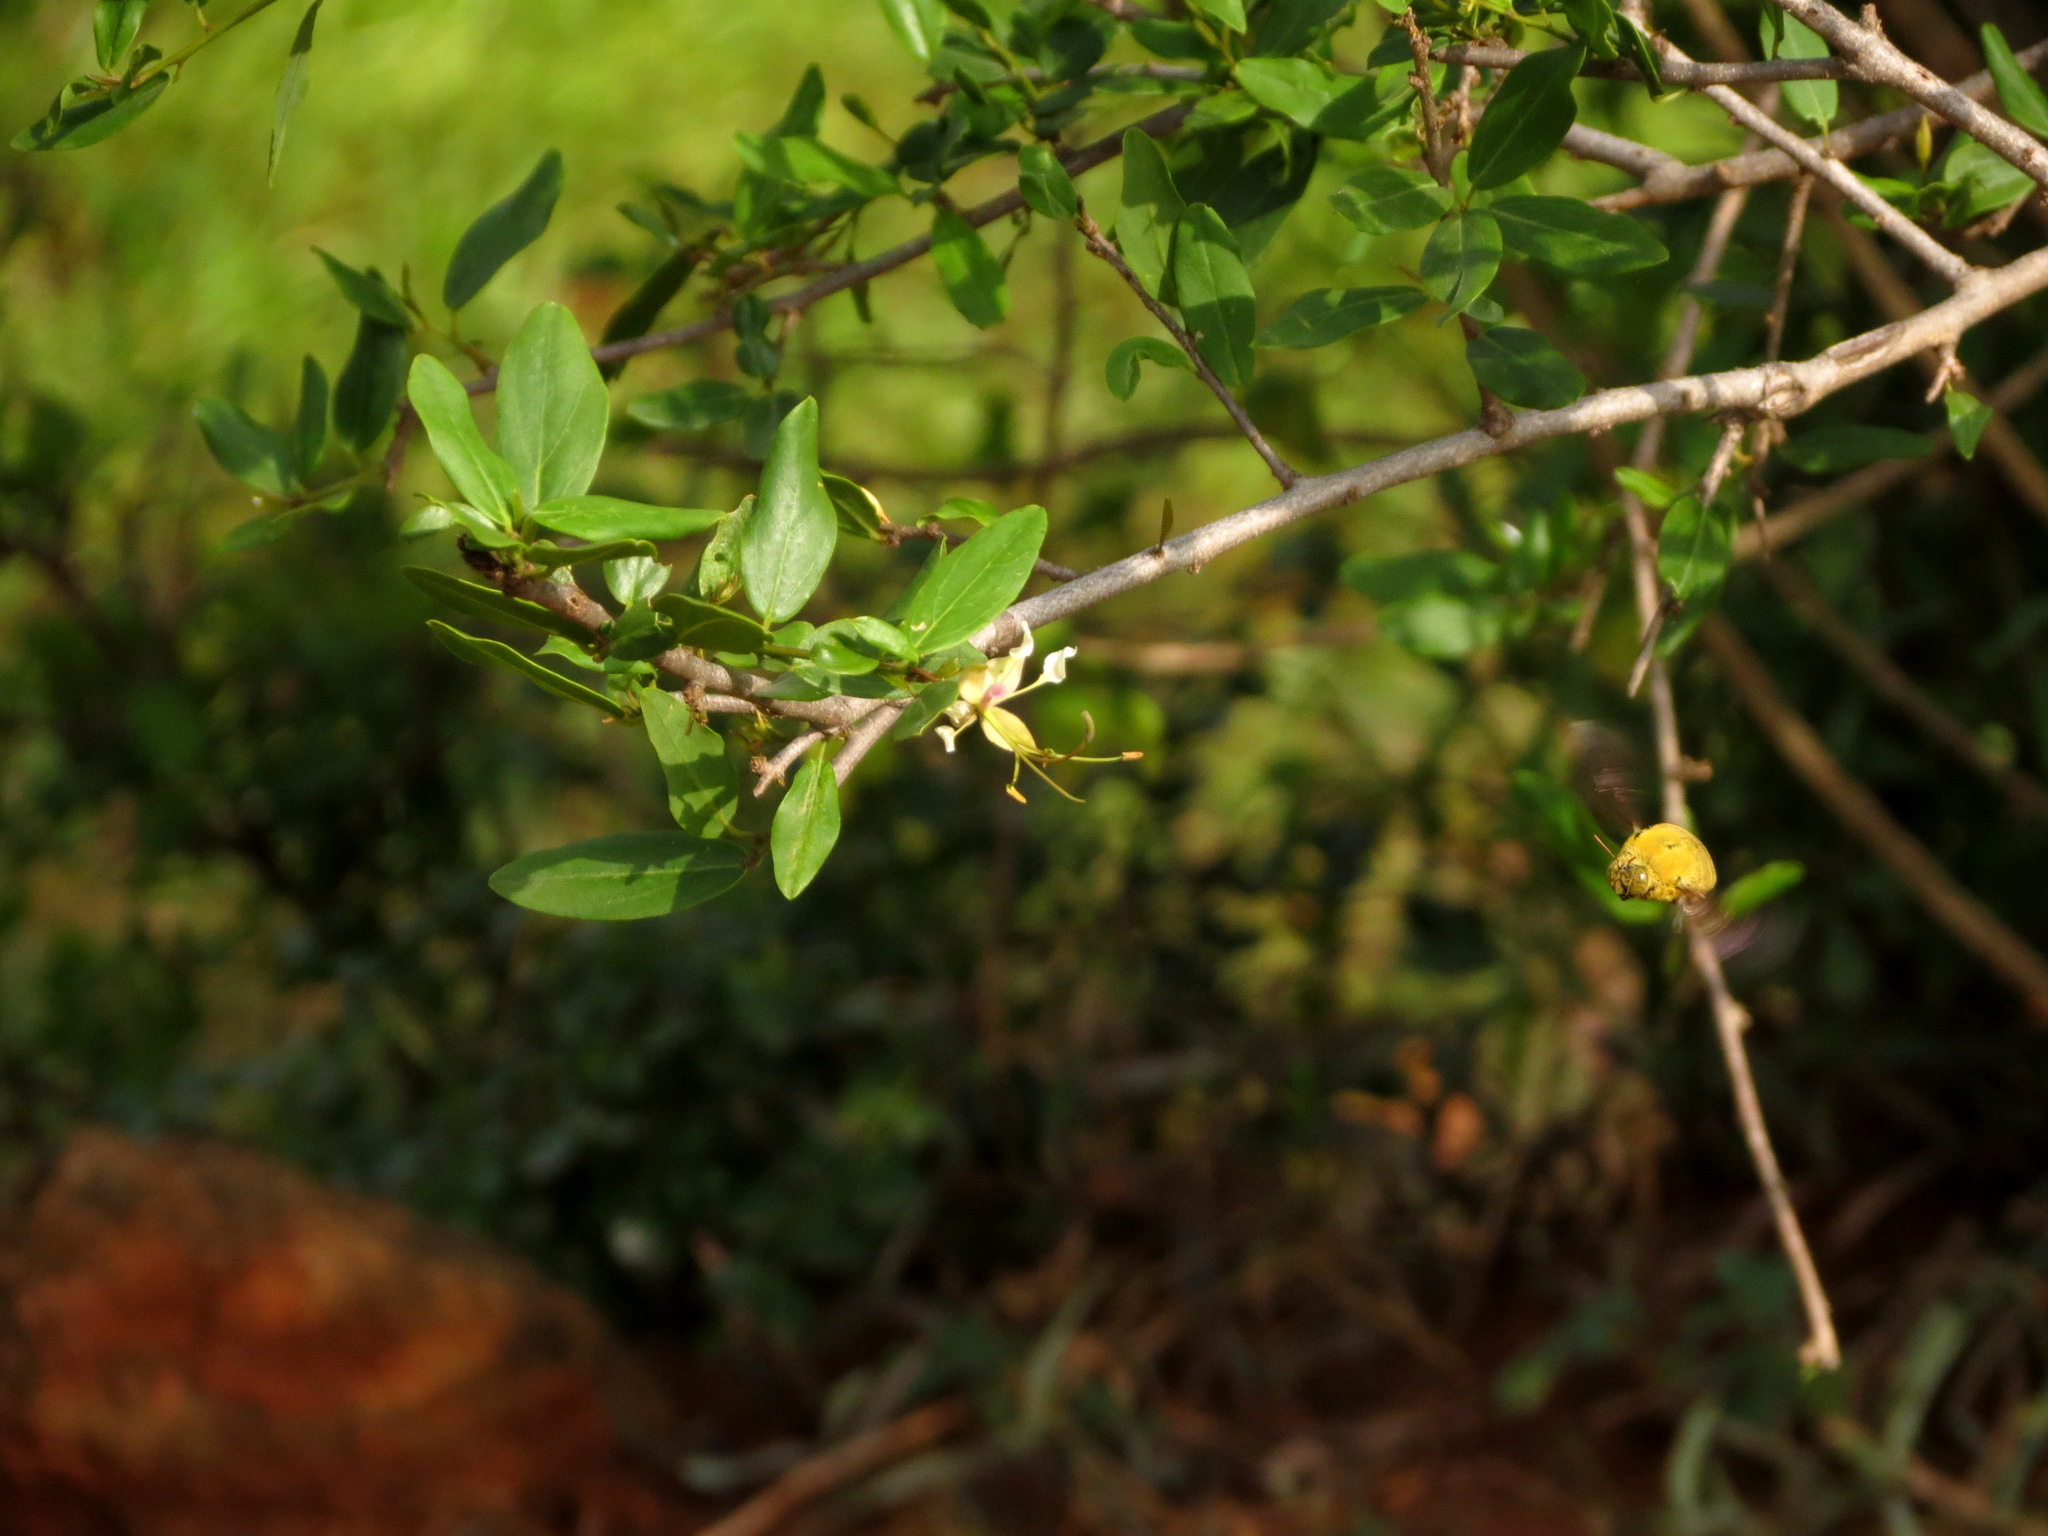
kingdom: Plantae
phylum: Tracheophyta
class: Magnoliopsida
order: Brassicales
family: Capparaceae
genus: Cadaba
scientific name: Cadaba fruticosa
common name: Indian cadaba
